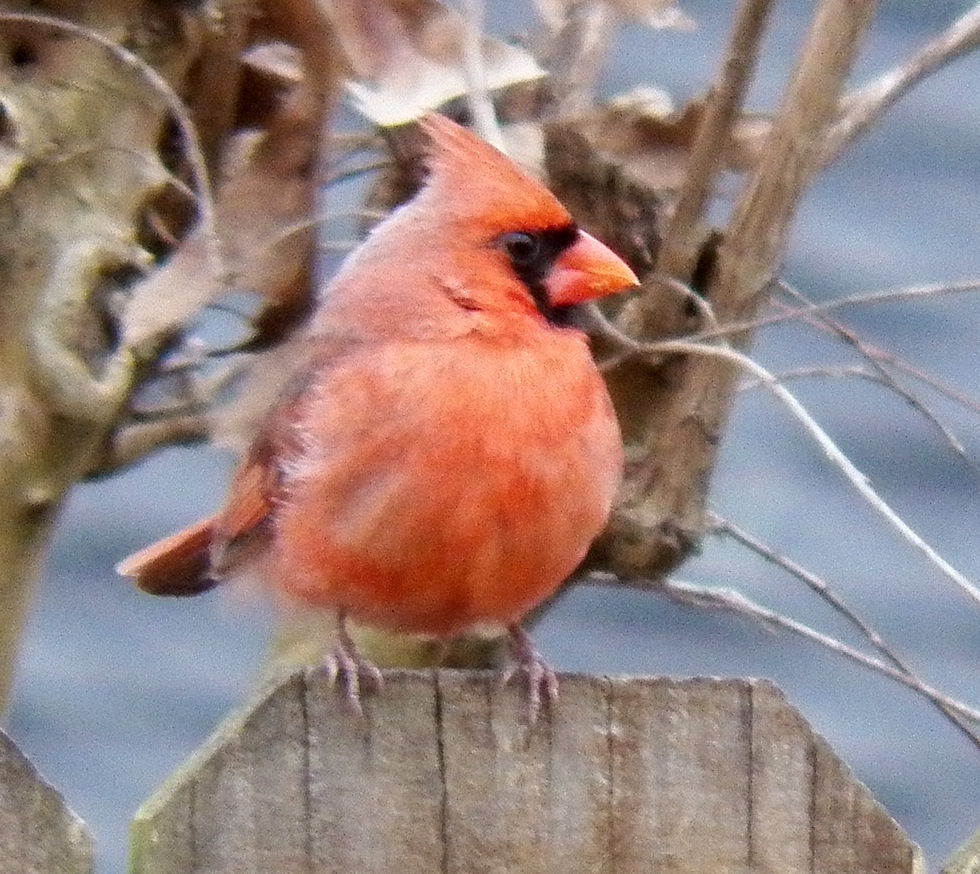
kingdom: Animalia
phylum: Chordata
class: Aves
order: Passeriformes
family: Cardinalidae
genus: Cardinalis
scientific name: Cardinalis cardinalis
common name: Northern cardinal
